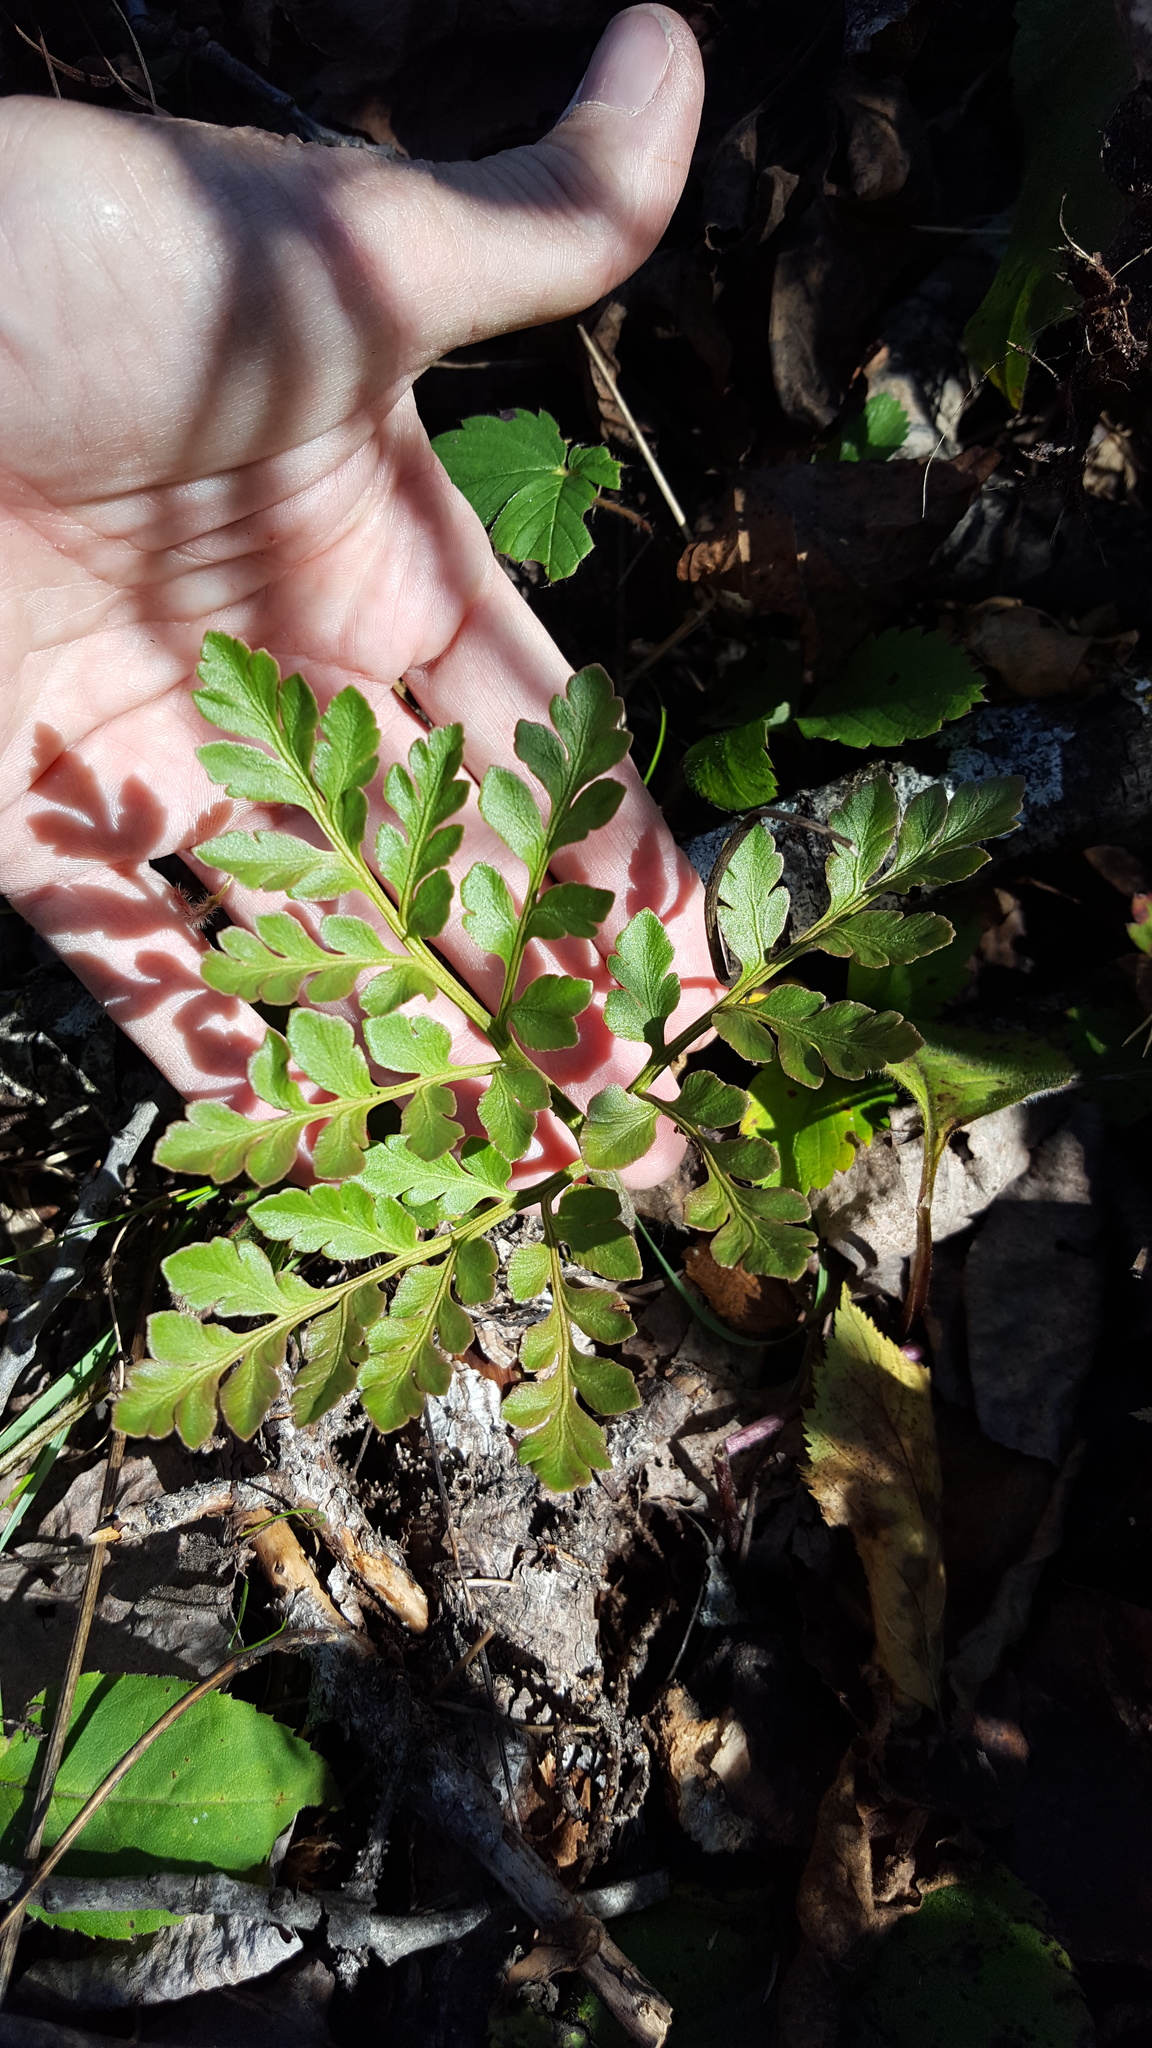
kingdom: Plantae
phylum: Tracheophyta
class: Polypodiopsida
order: Ophioglossales
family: Ophioglossaceae
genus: Sceptridium
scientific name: Sceptridium multifidum
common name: Leathery grape fern
